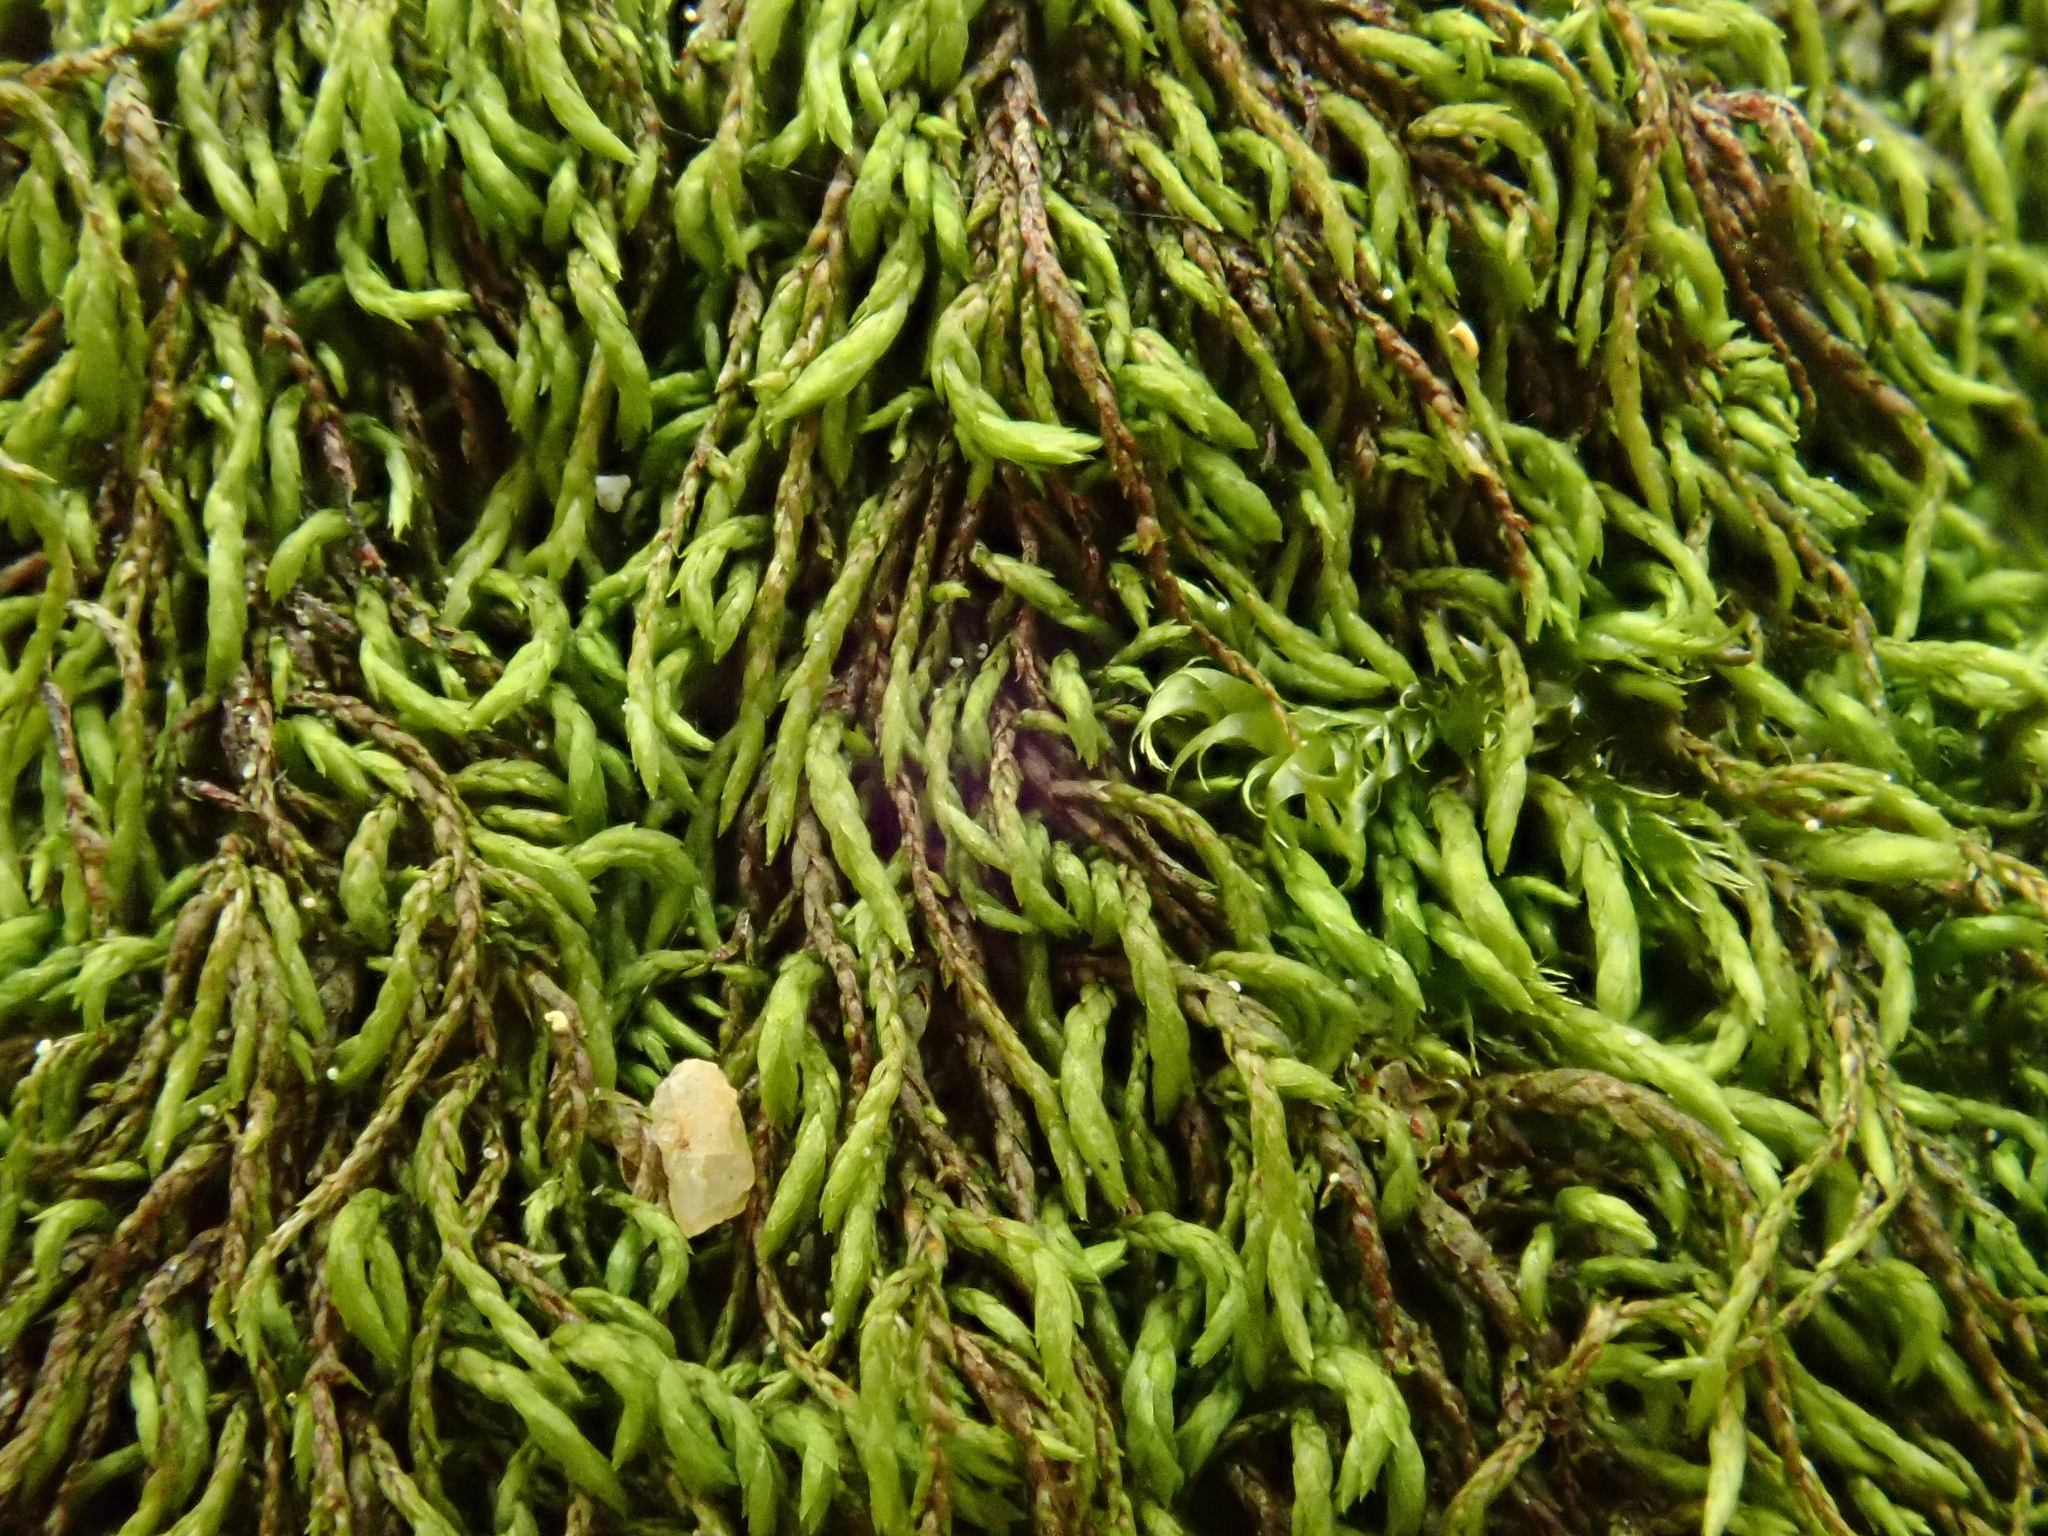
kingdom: Plantae
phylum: Bryophyta
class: Bryopsida
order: Hypnales
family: Pterigynandraceae
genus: Pterigynandrum
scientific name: Pterigynandrum filiforme
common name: Capillary wing moss
